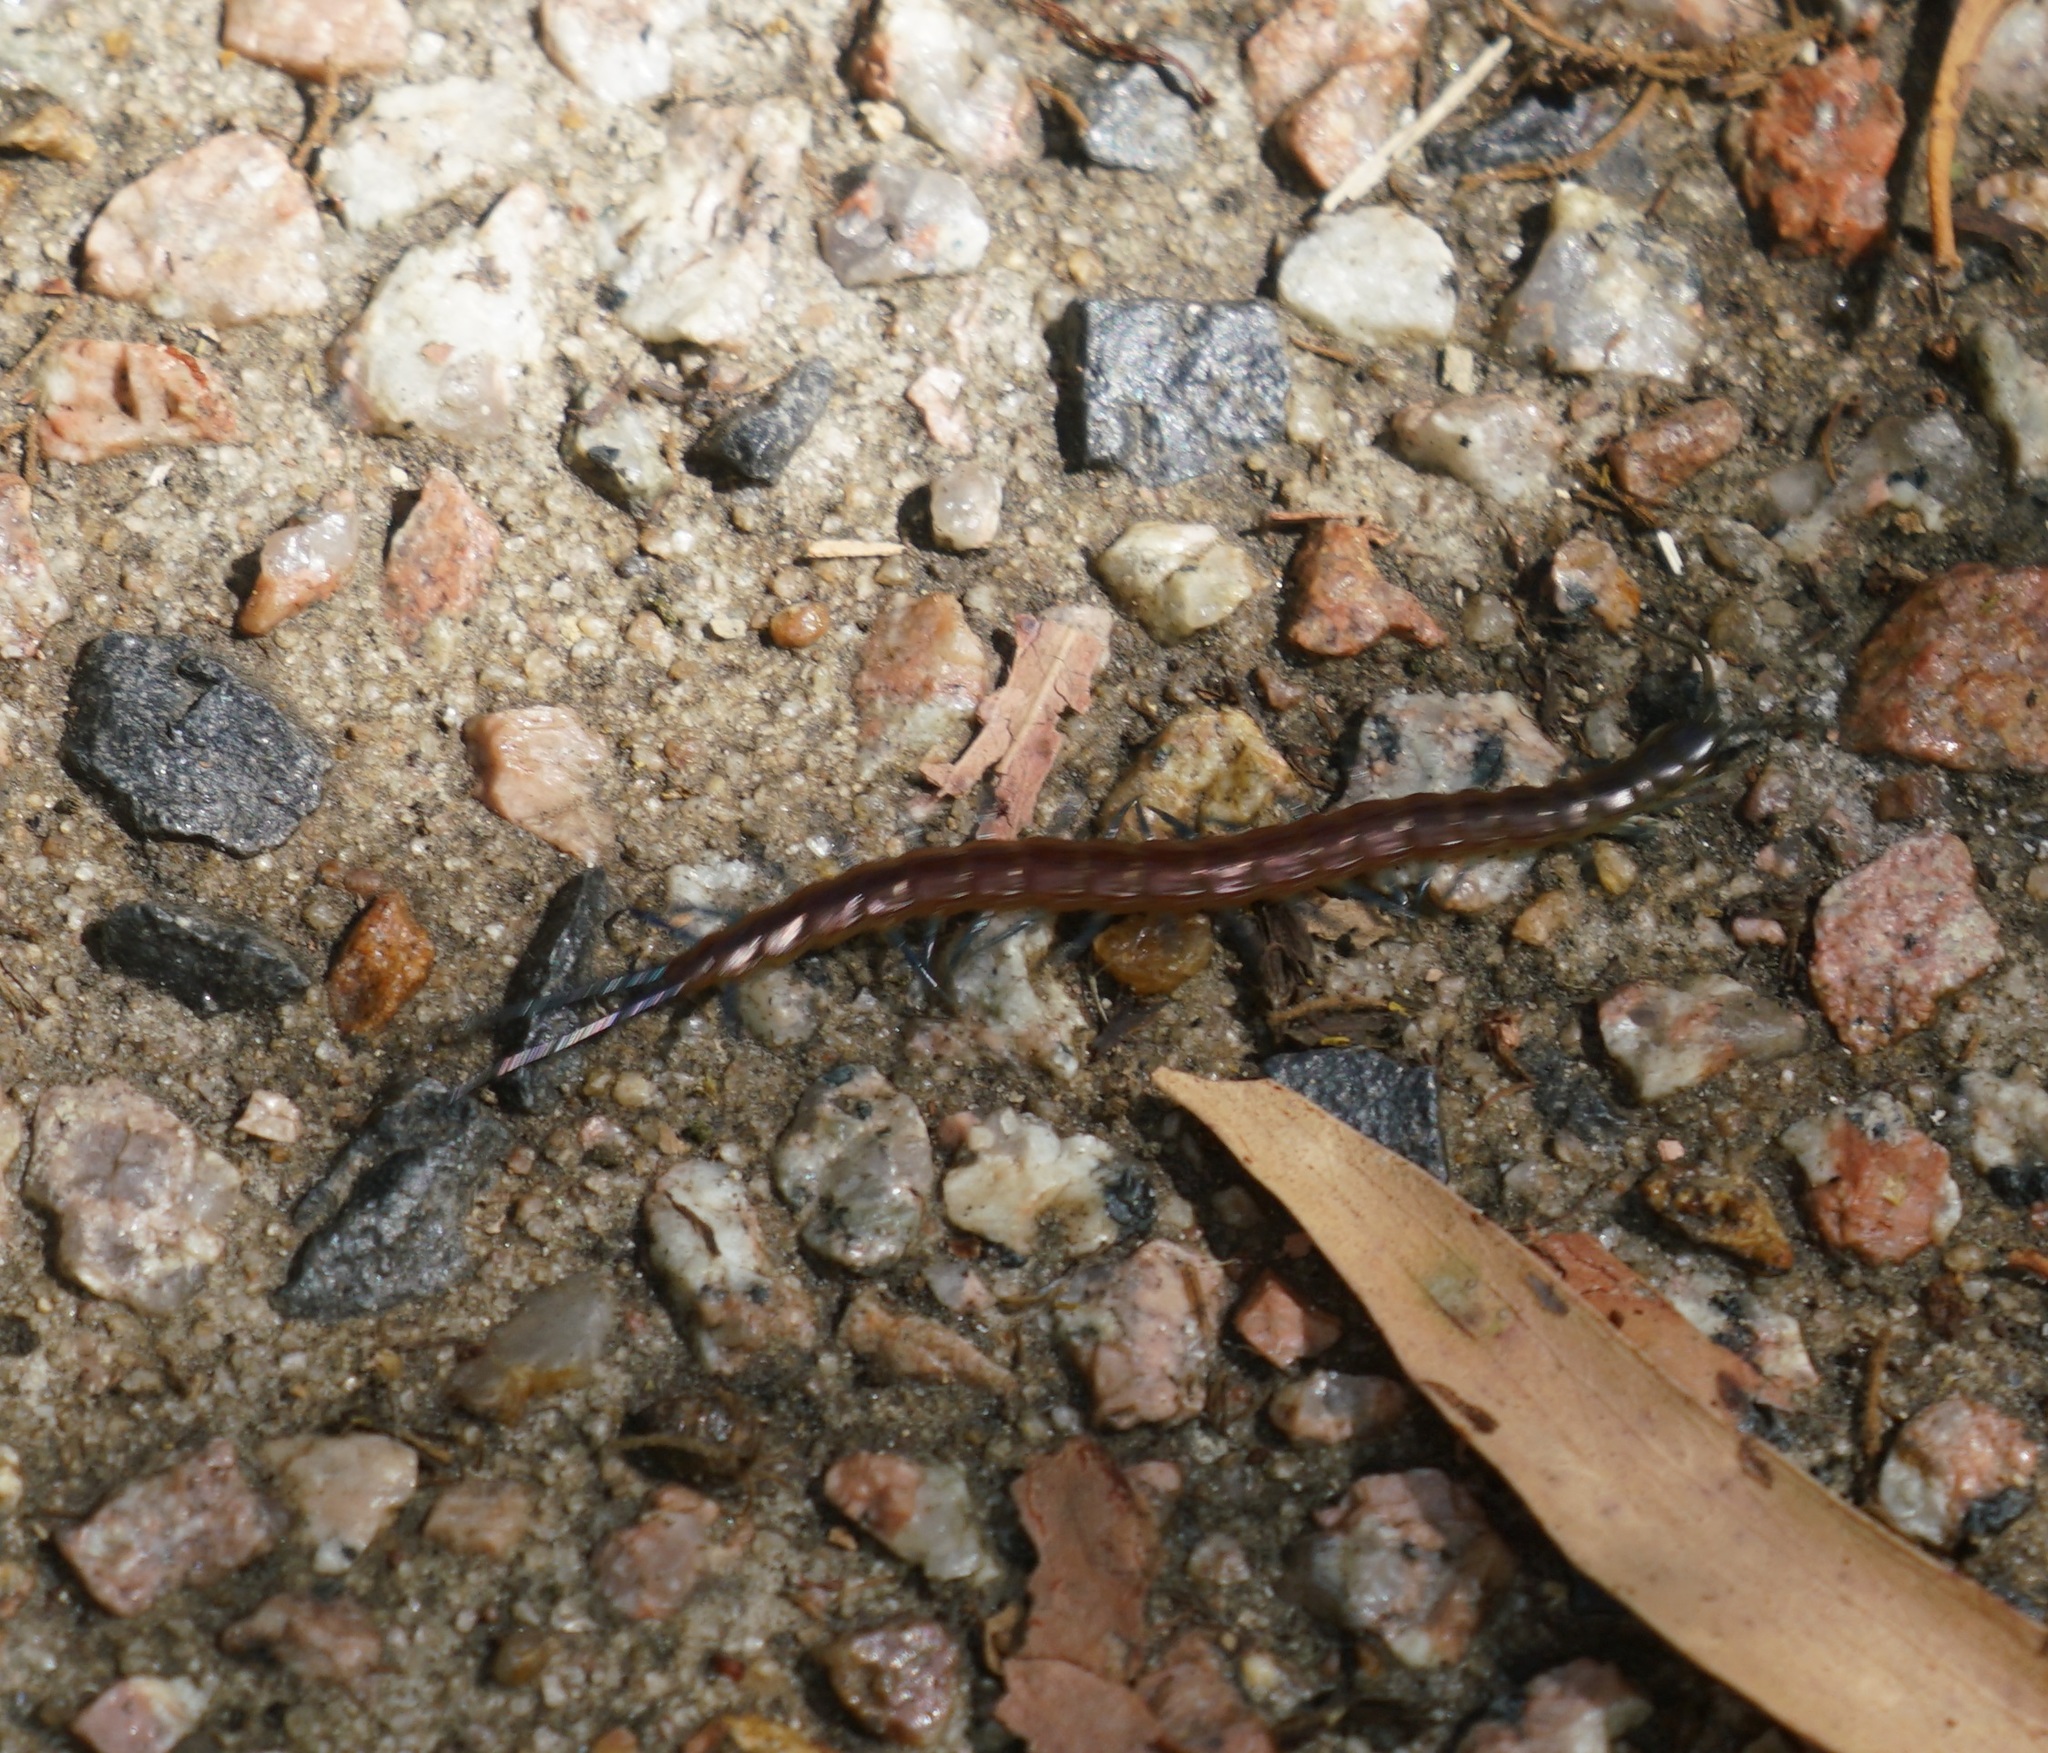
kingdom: Animalia
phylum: Arthropoda
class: Chilopoda
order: Scolopendromorpha
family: Scolopendridae
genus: Rhysida
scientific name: Rhysida nuda
